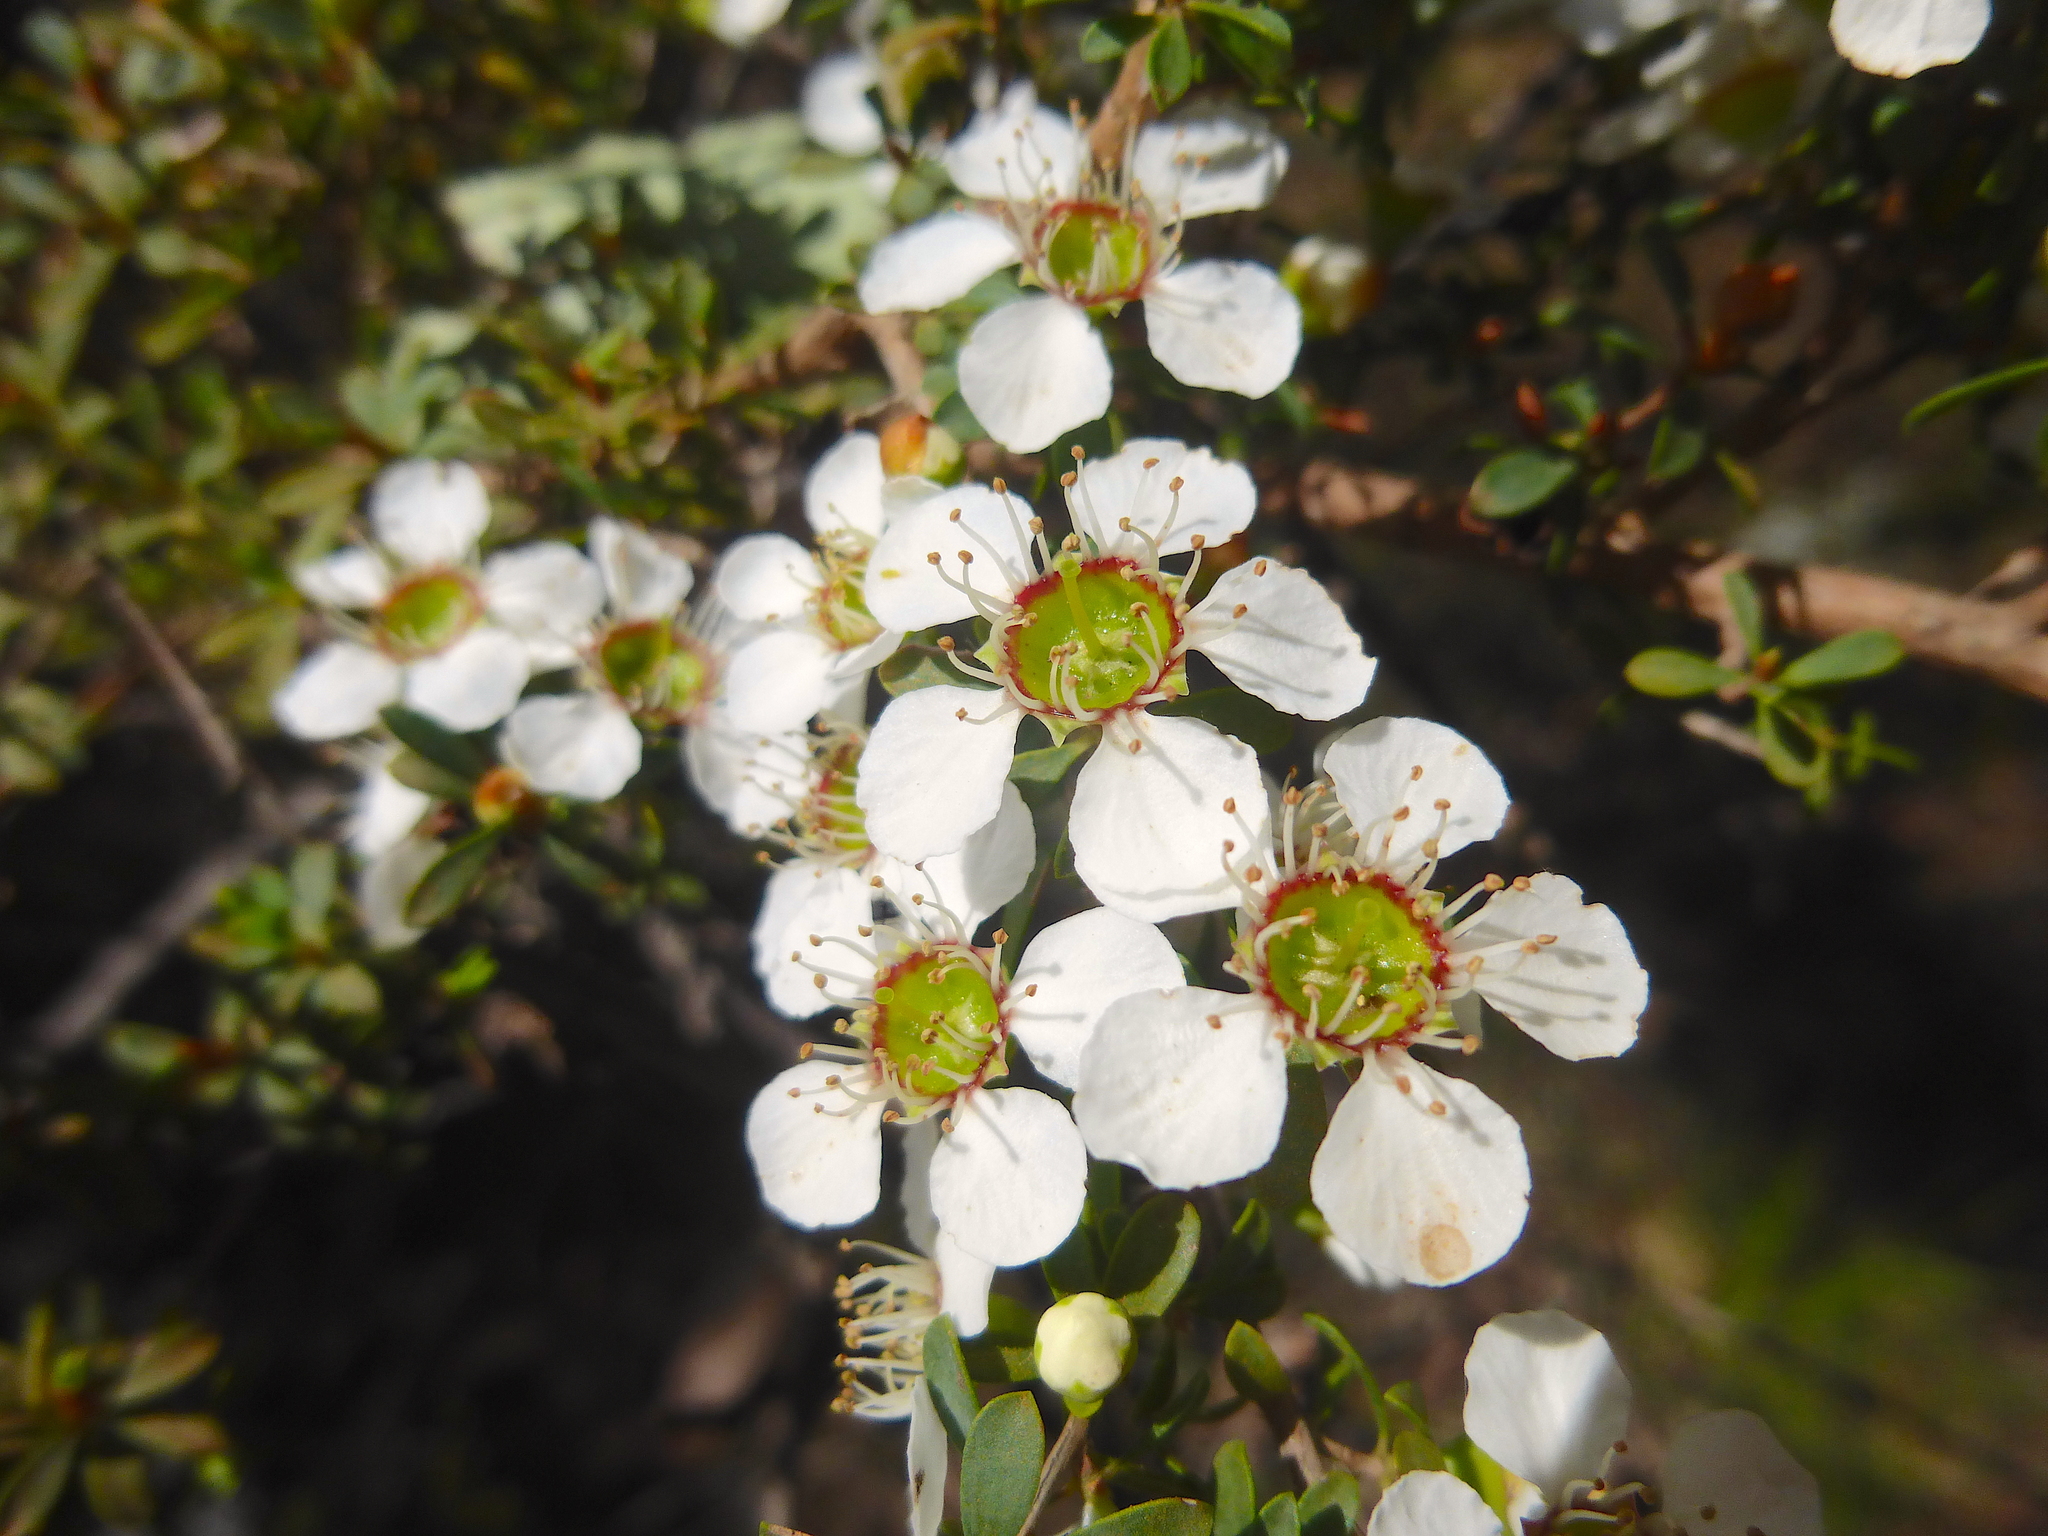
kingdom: Plantae
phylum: Tracheophyta
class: Magnoliopsida
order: Myrtales
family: Myrtaceae
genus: Leptospermum
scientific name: Leptospermum myrsinoides
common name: Heath teatree
